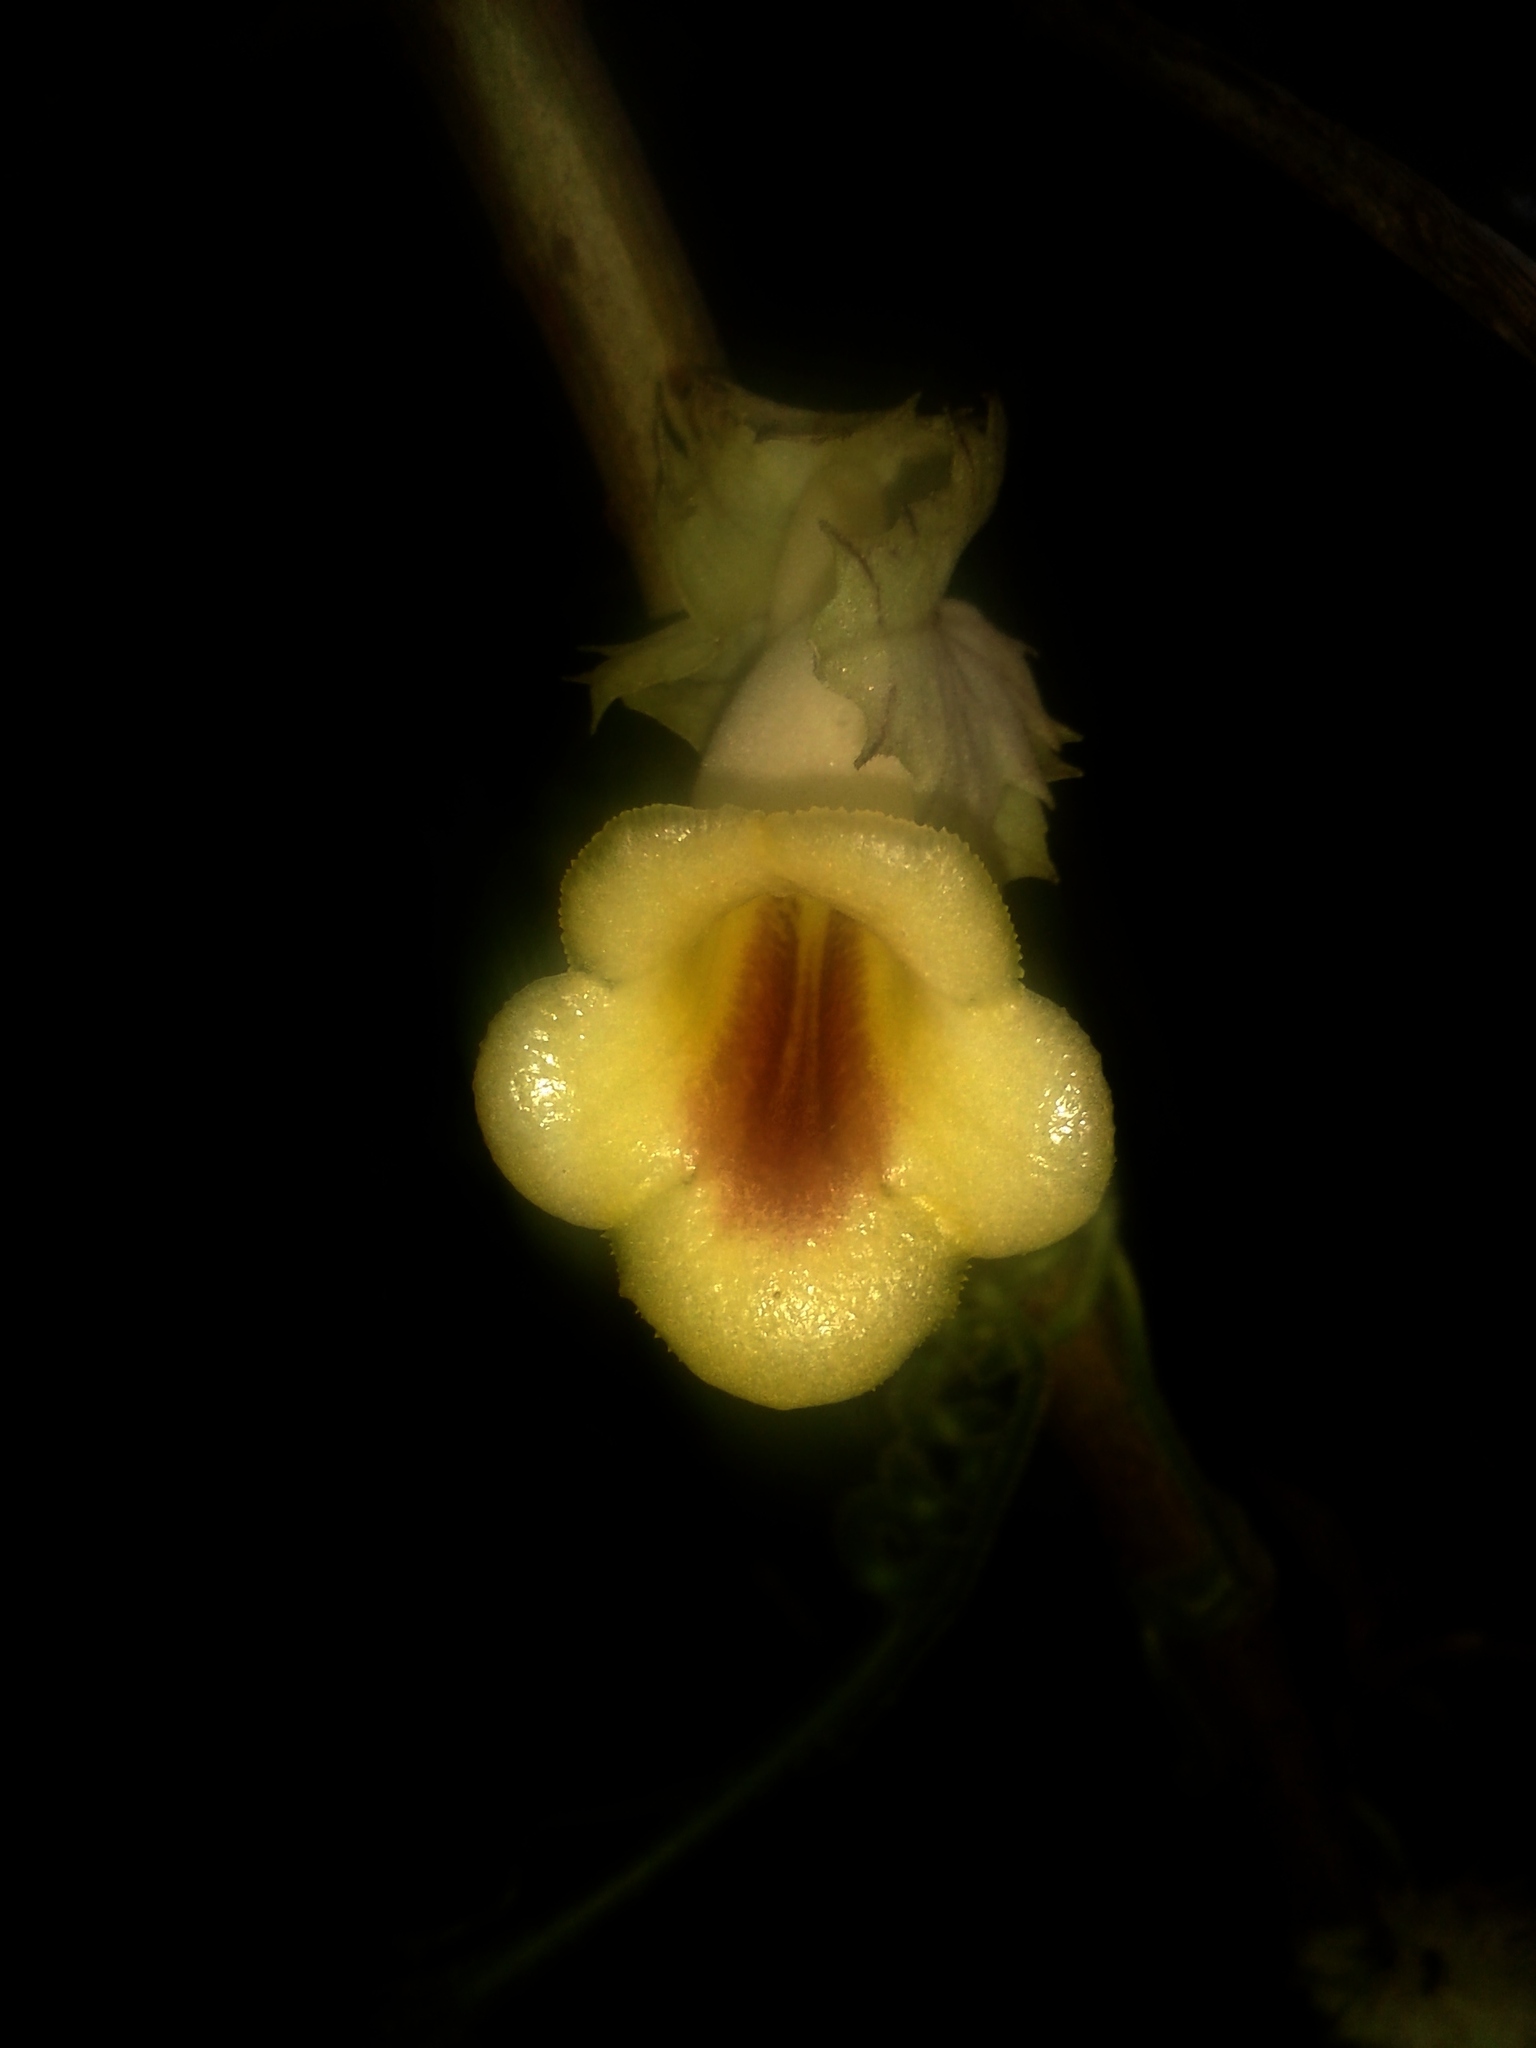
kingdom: Plantae
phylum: Tracheophyta
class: Magnoliopsida
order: Lamiales
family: Gesneriaceae
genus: Drymonia
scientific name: Drymonia macrophylla
